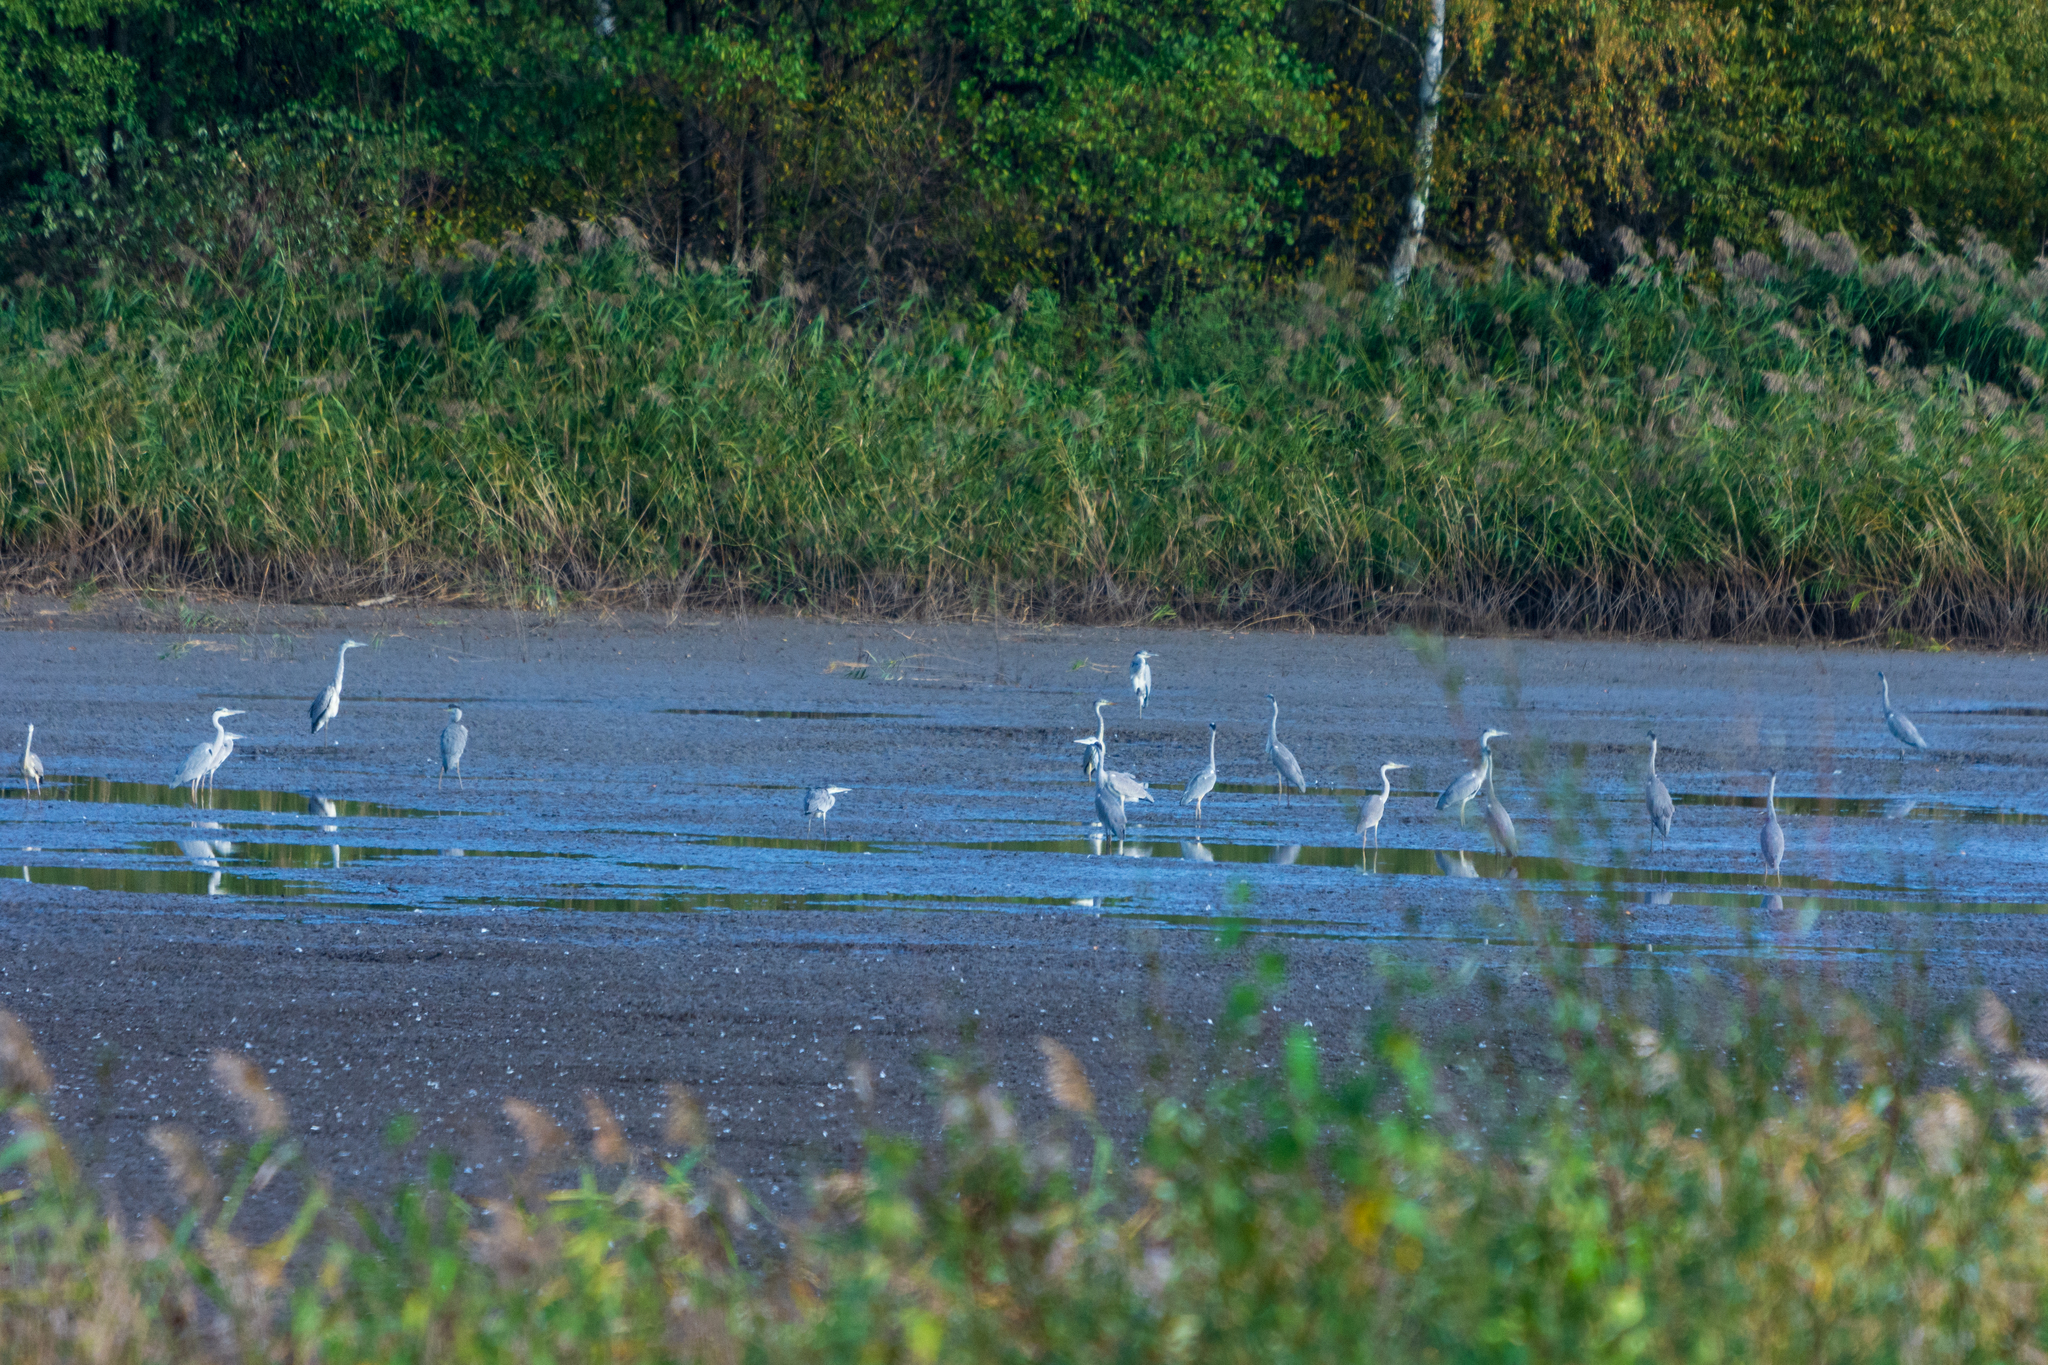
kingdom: Animalia
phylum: Chordata
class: Aves
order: Pelecaniformes
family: Ardeidae
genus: Ardea
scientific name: Ardea cinerea
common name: Grey heron
